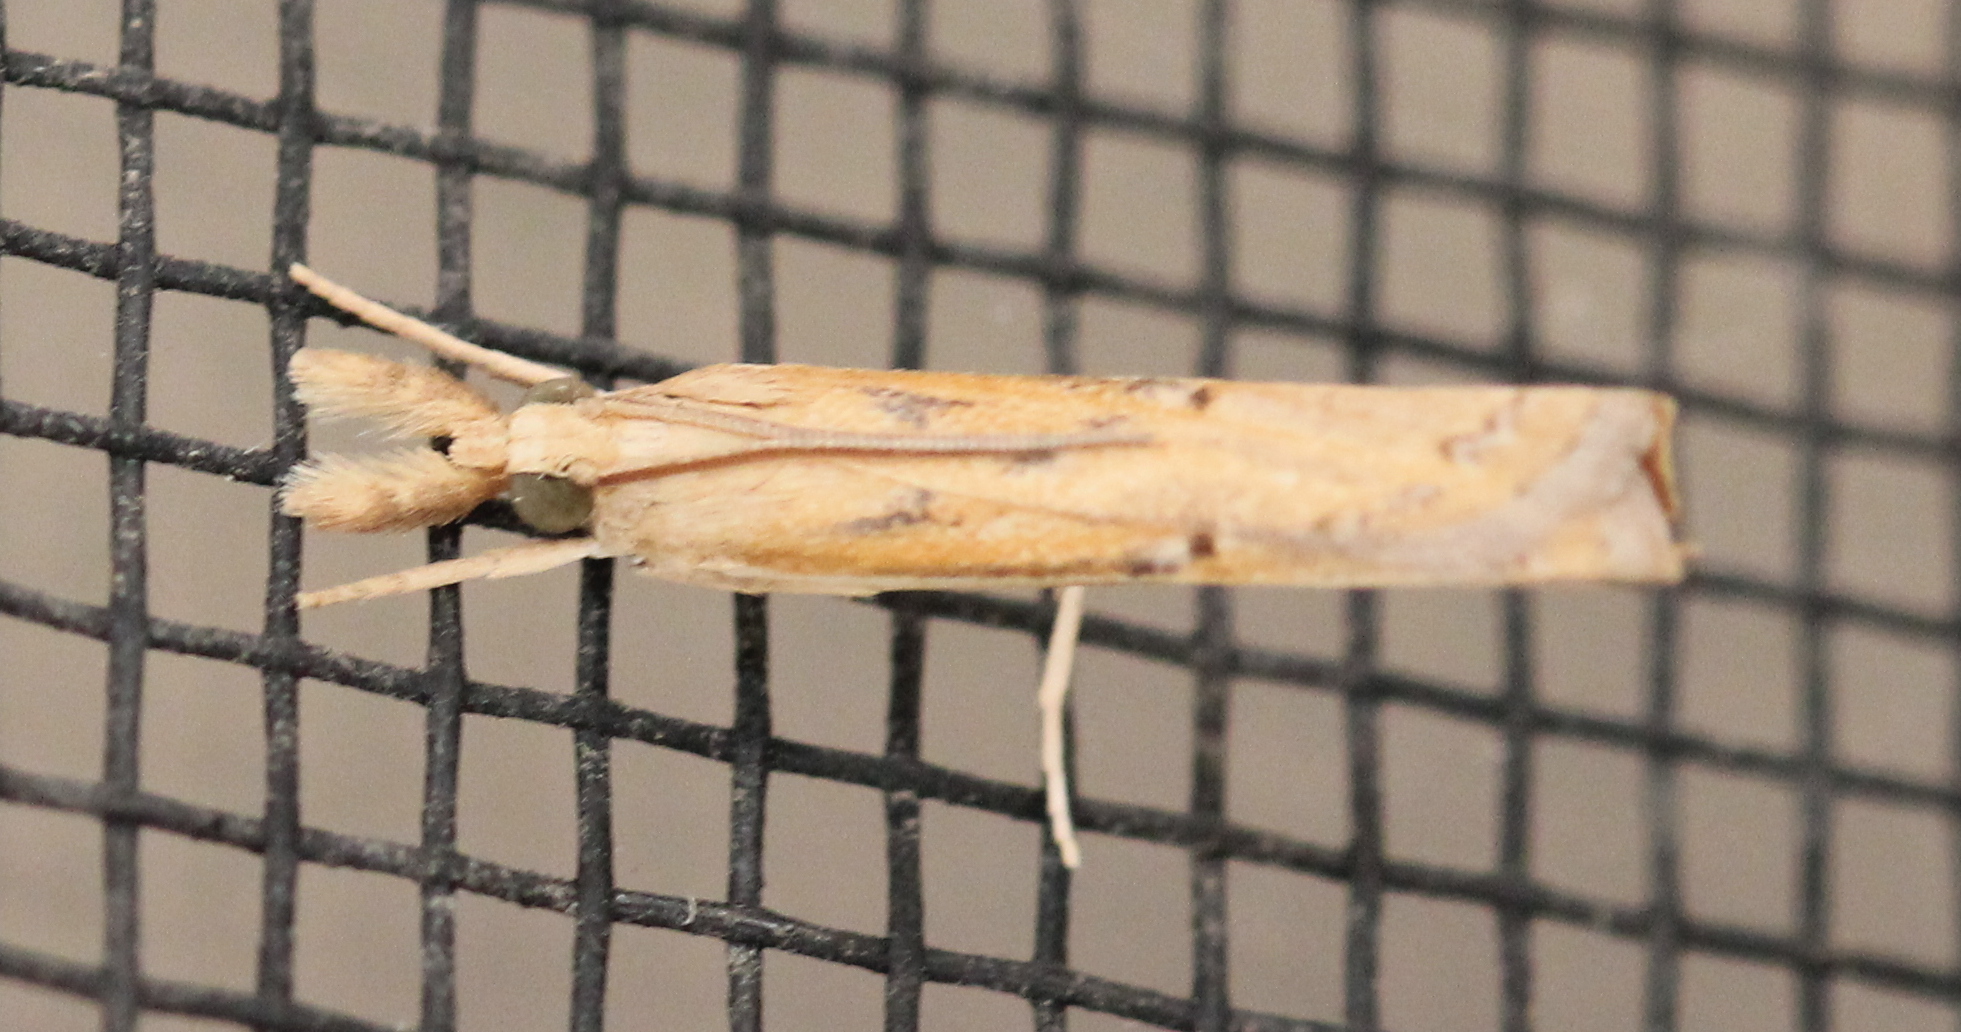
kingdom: Animalia
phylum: Arthropoda
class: Insecta
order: Lepidoptera
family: Crambidae
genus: Parapediasia
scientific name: Parapediasia teterellus
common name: Bluegrass webworm moth
